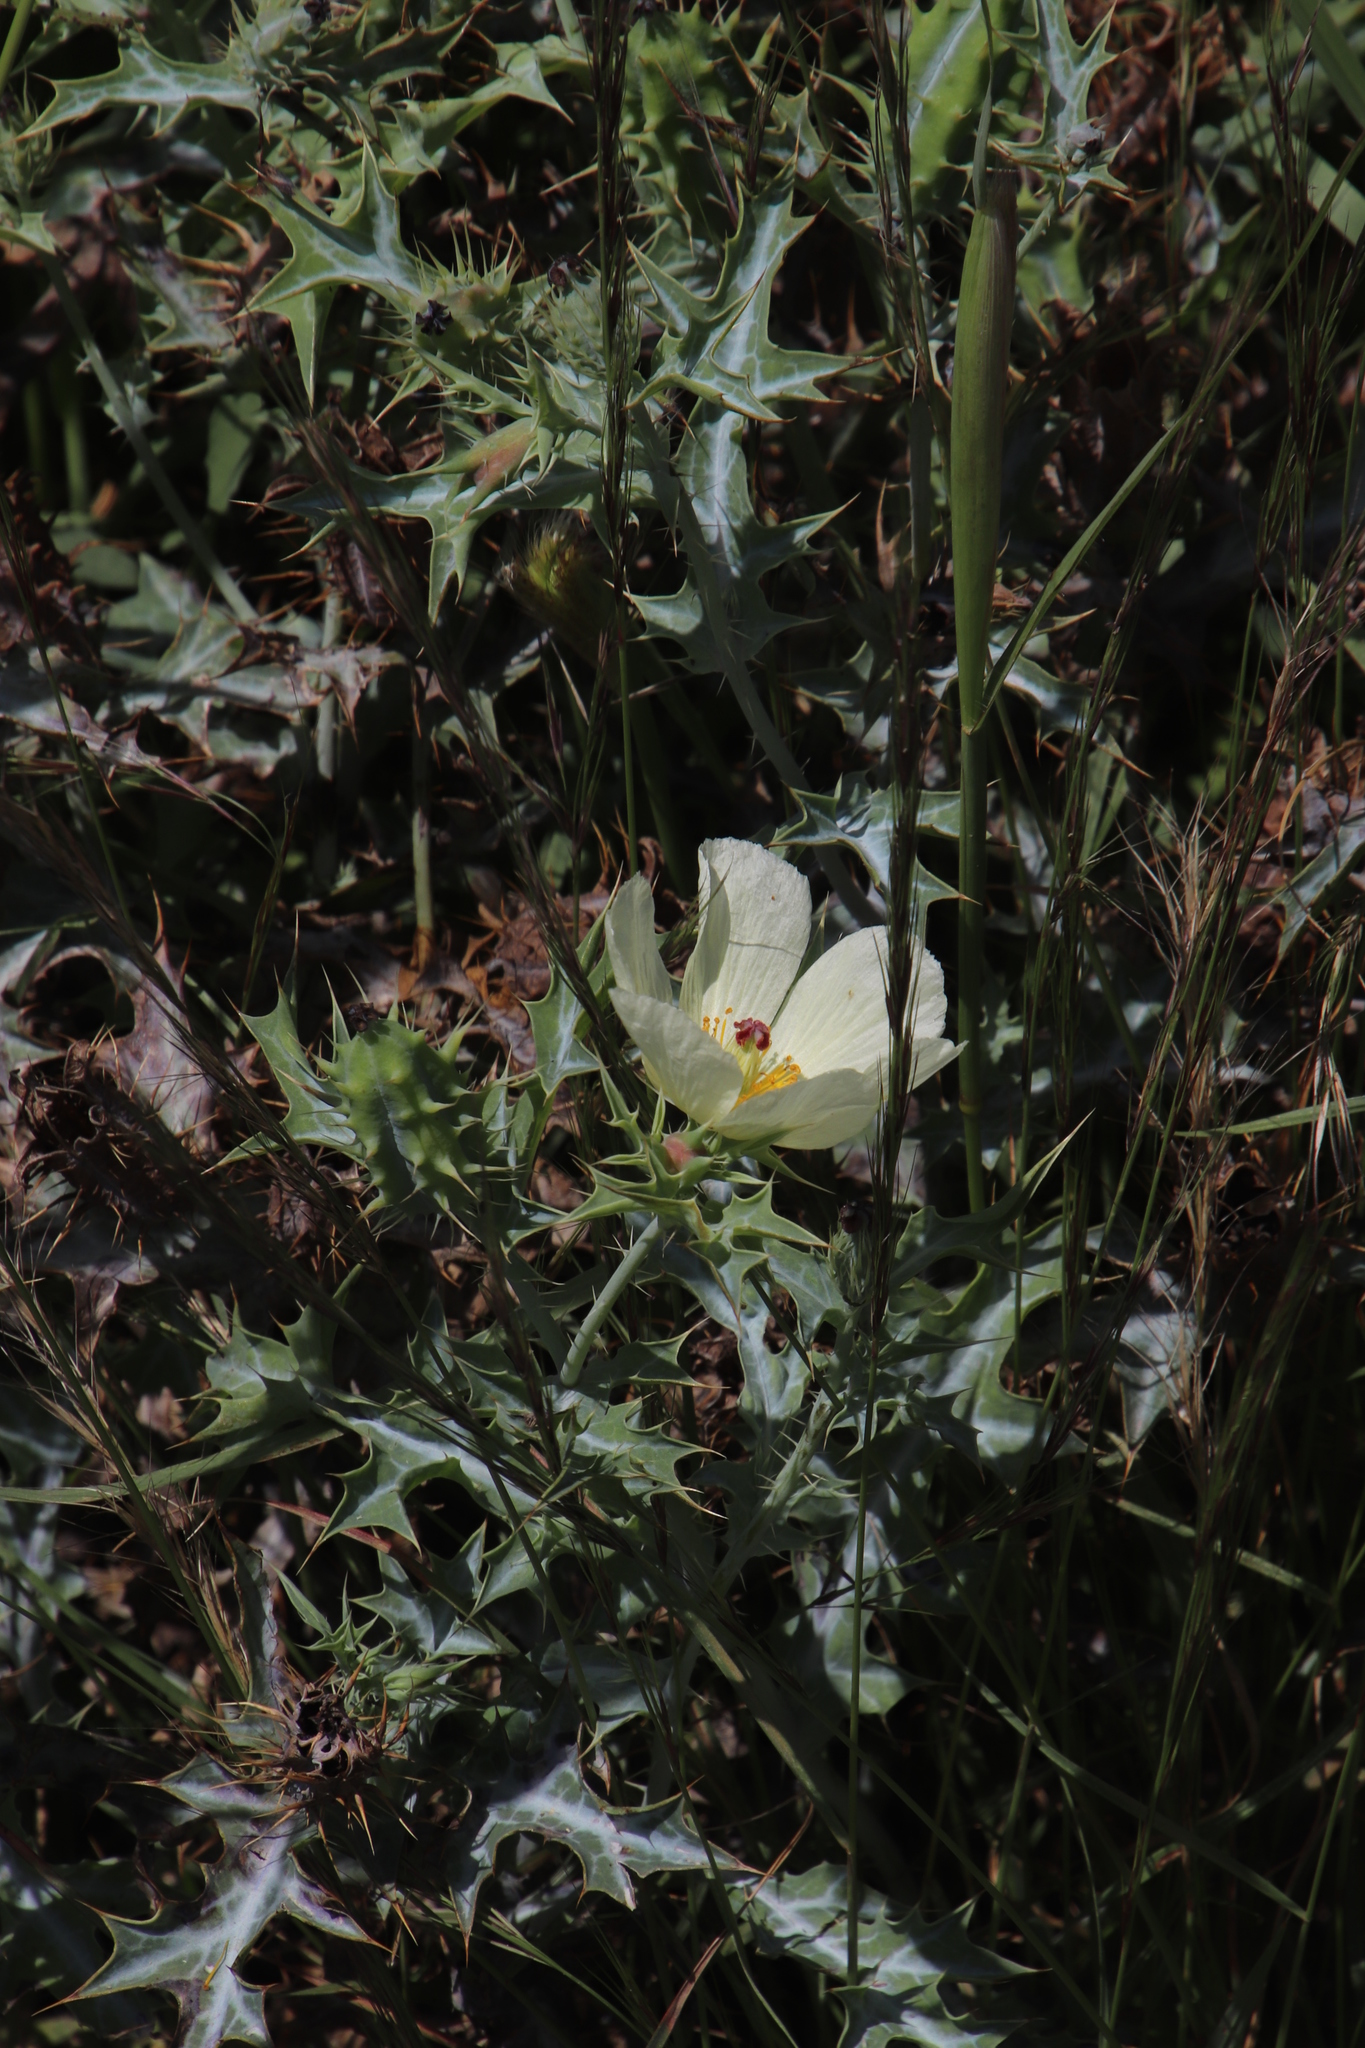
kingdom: Plantae
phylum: Tracheophyta
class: Magnoliopsida
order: Ranunculales
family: Papaveraceae
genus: Argemone
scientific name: Argemone ochroleuca
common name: White-flower mexican-poppy
